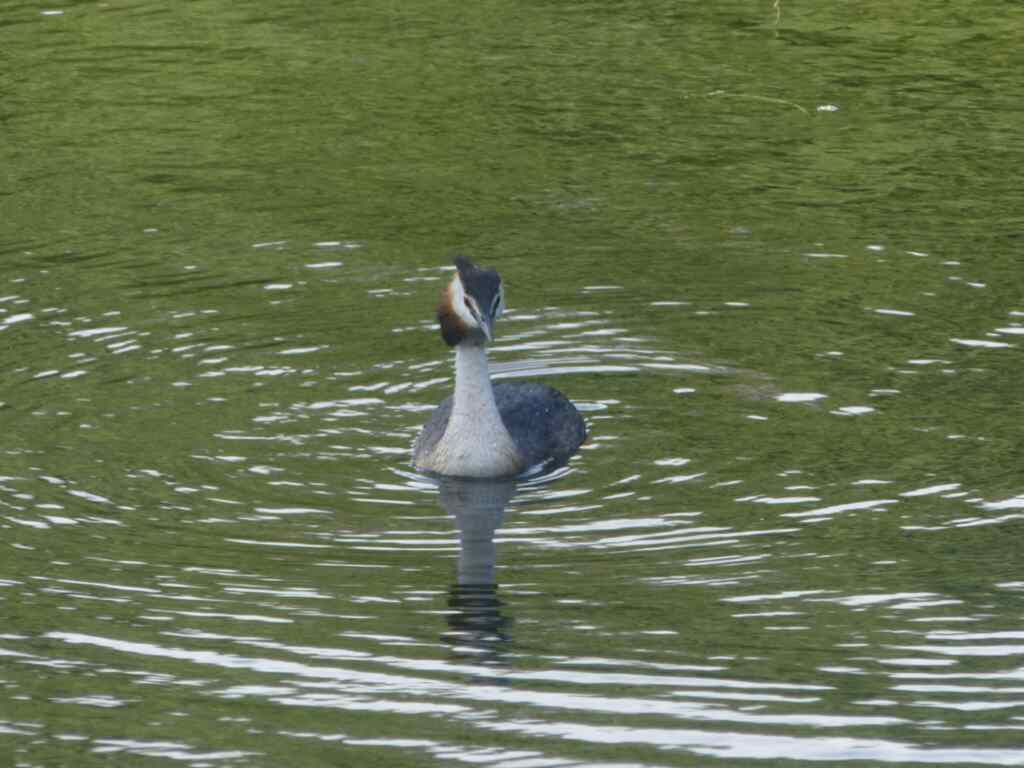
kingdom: Animalia
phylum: Chordata
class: Aves
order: Podicipediformes
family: Podicipedidae
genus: Podiceps
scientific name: Podiceps cristatus
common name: Great crested grebe
